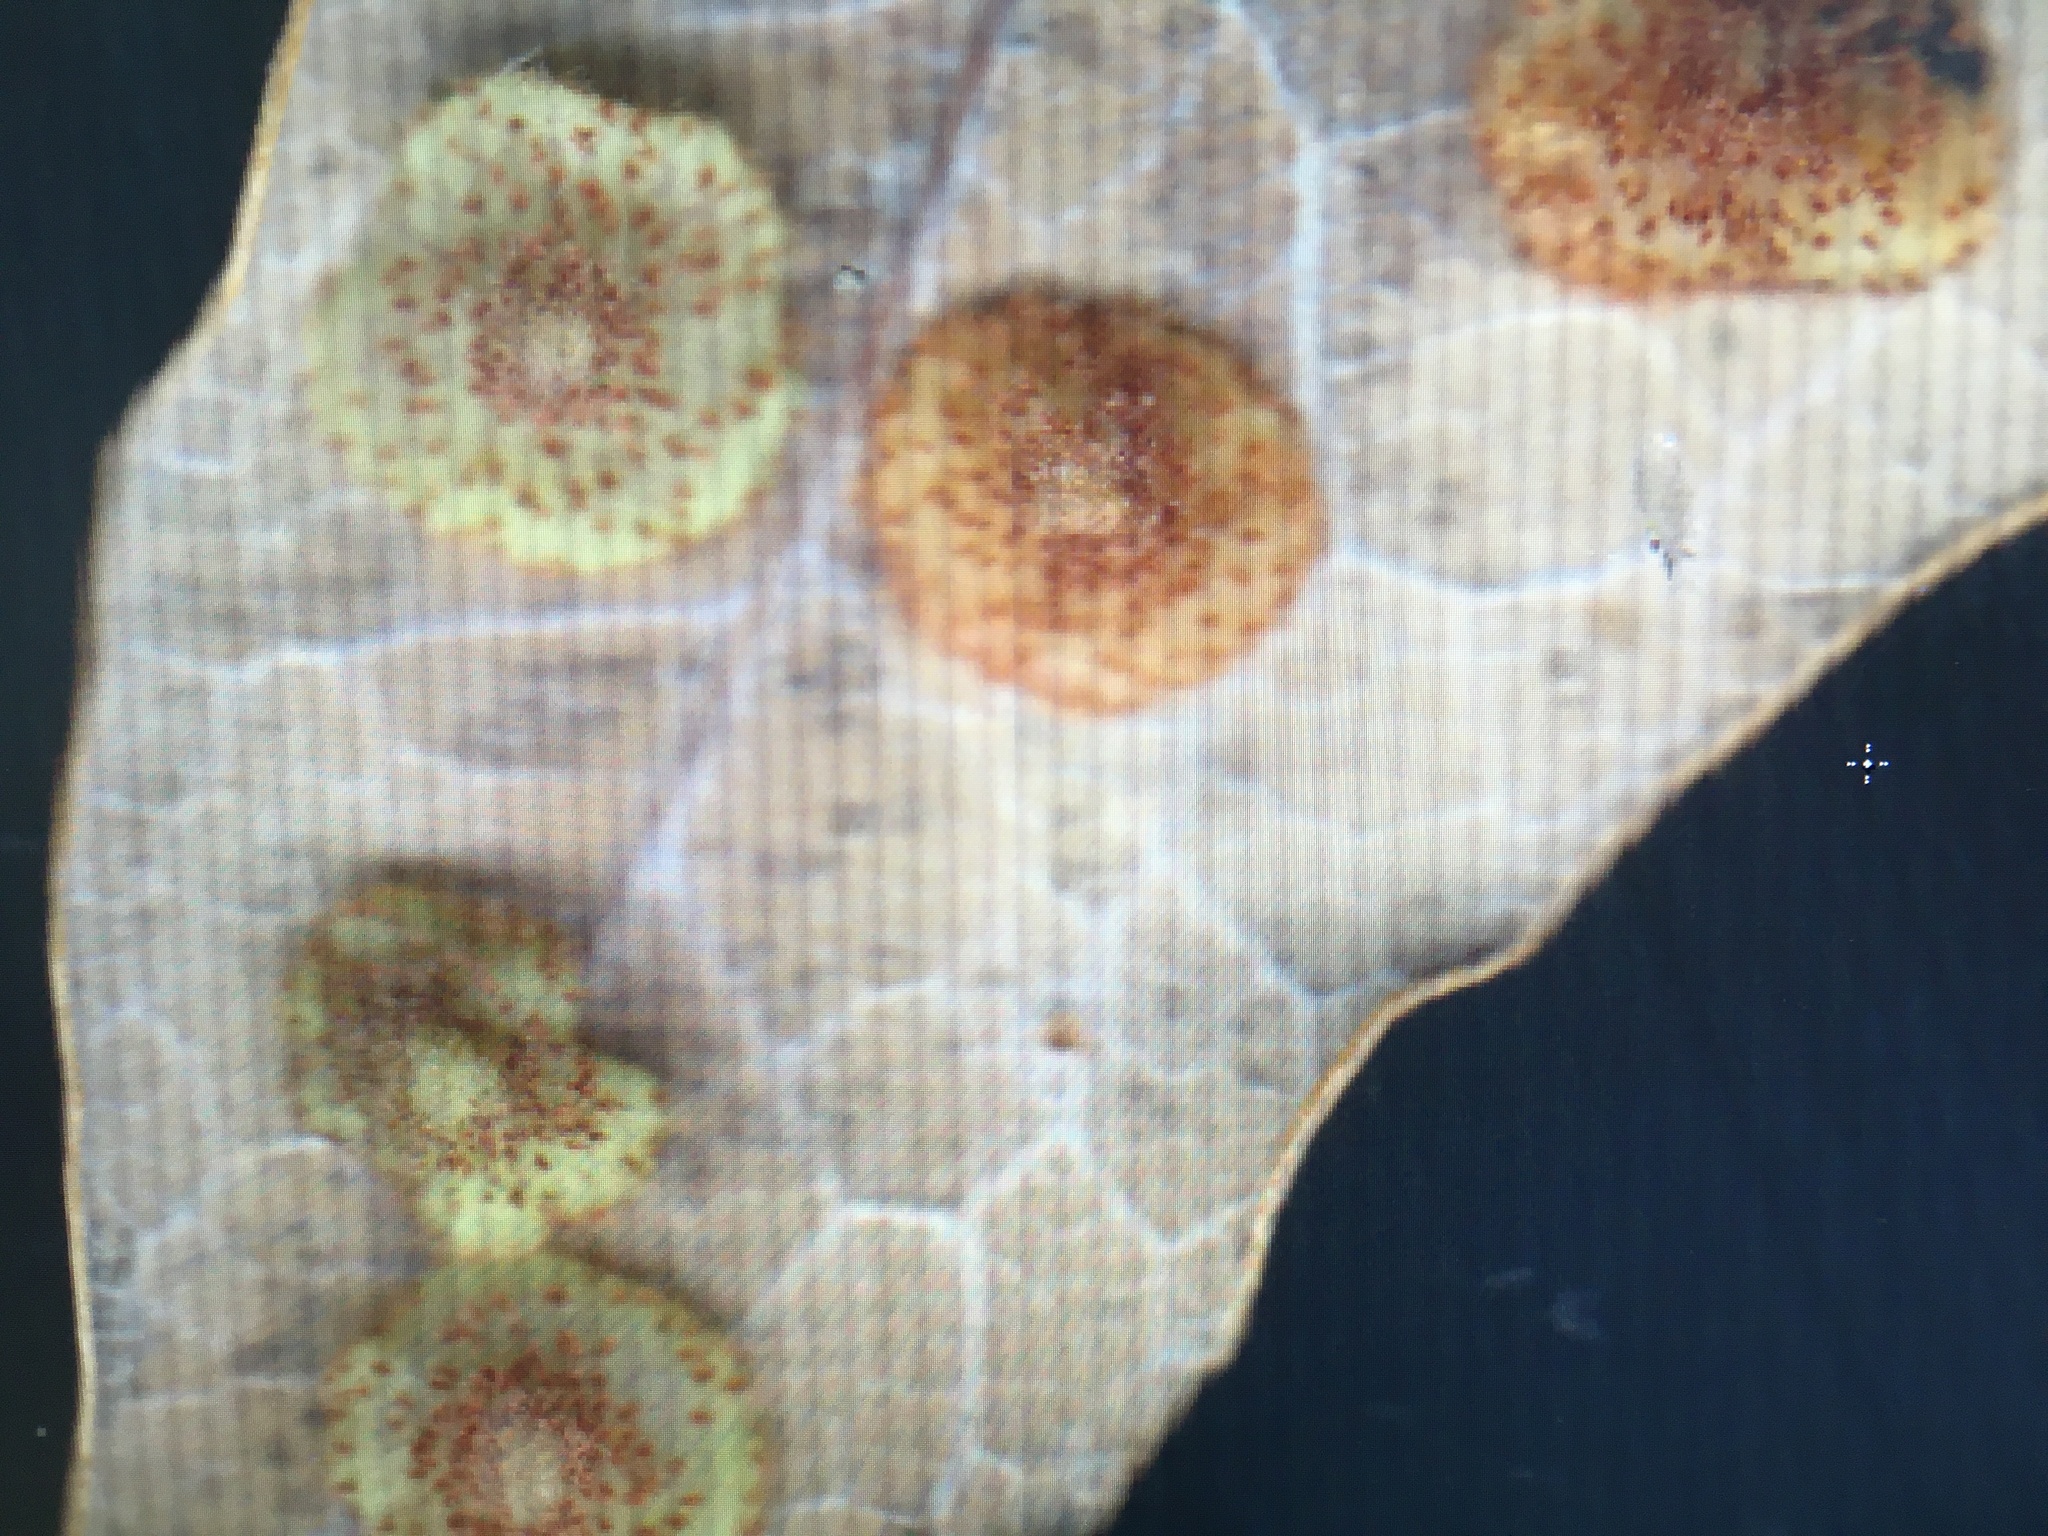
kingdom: Animalia
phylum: Arthropoda
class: Insecta
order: Hymenoptera
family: Cynipidae
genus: Neuroterus
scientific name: Neuroterus quercusbaccarum
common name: Common spangle gall
